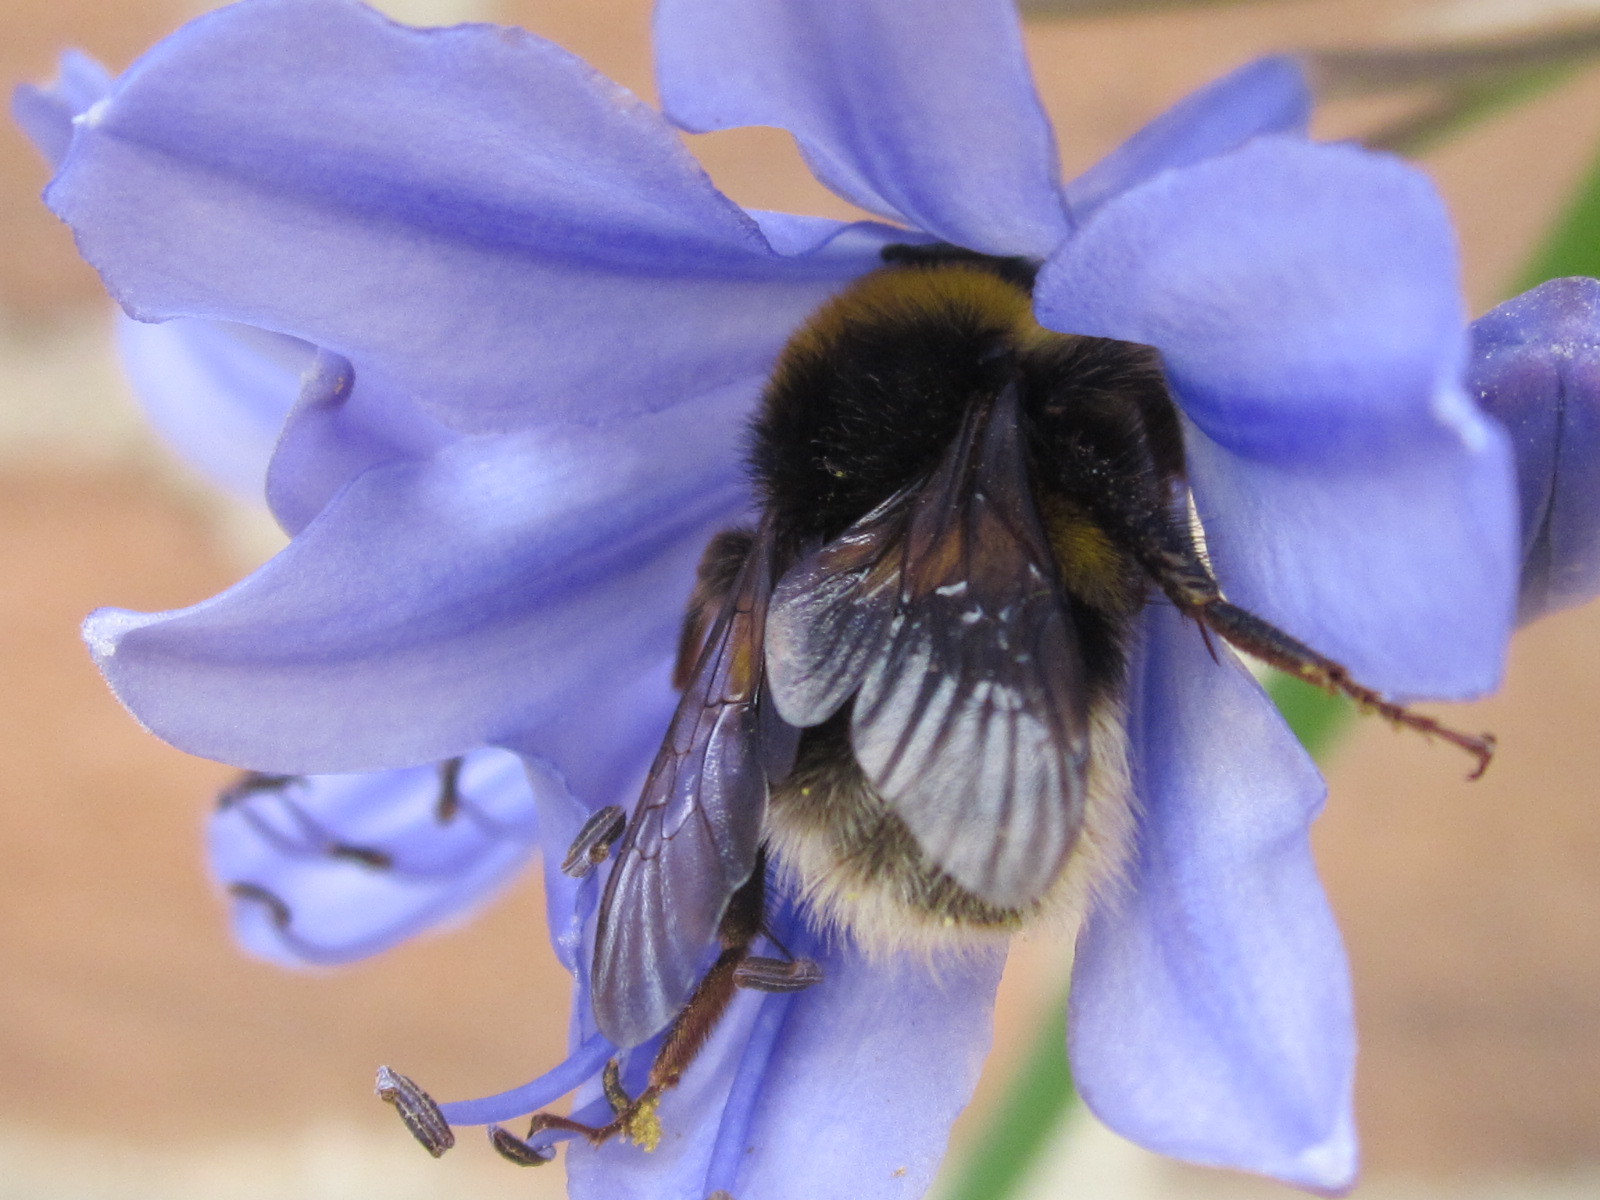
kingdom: Animalia
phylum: Arthropoda
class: Insecta
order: Hymenoptera
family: Apidae
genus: Bombus
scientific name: Bombus terrestris
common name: Buff-tailed bumblebee
